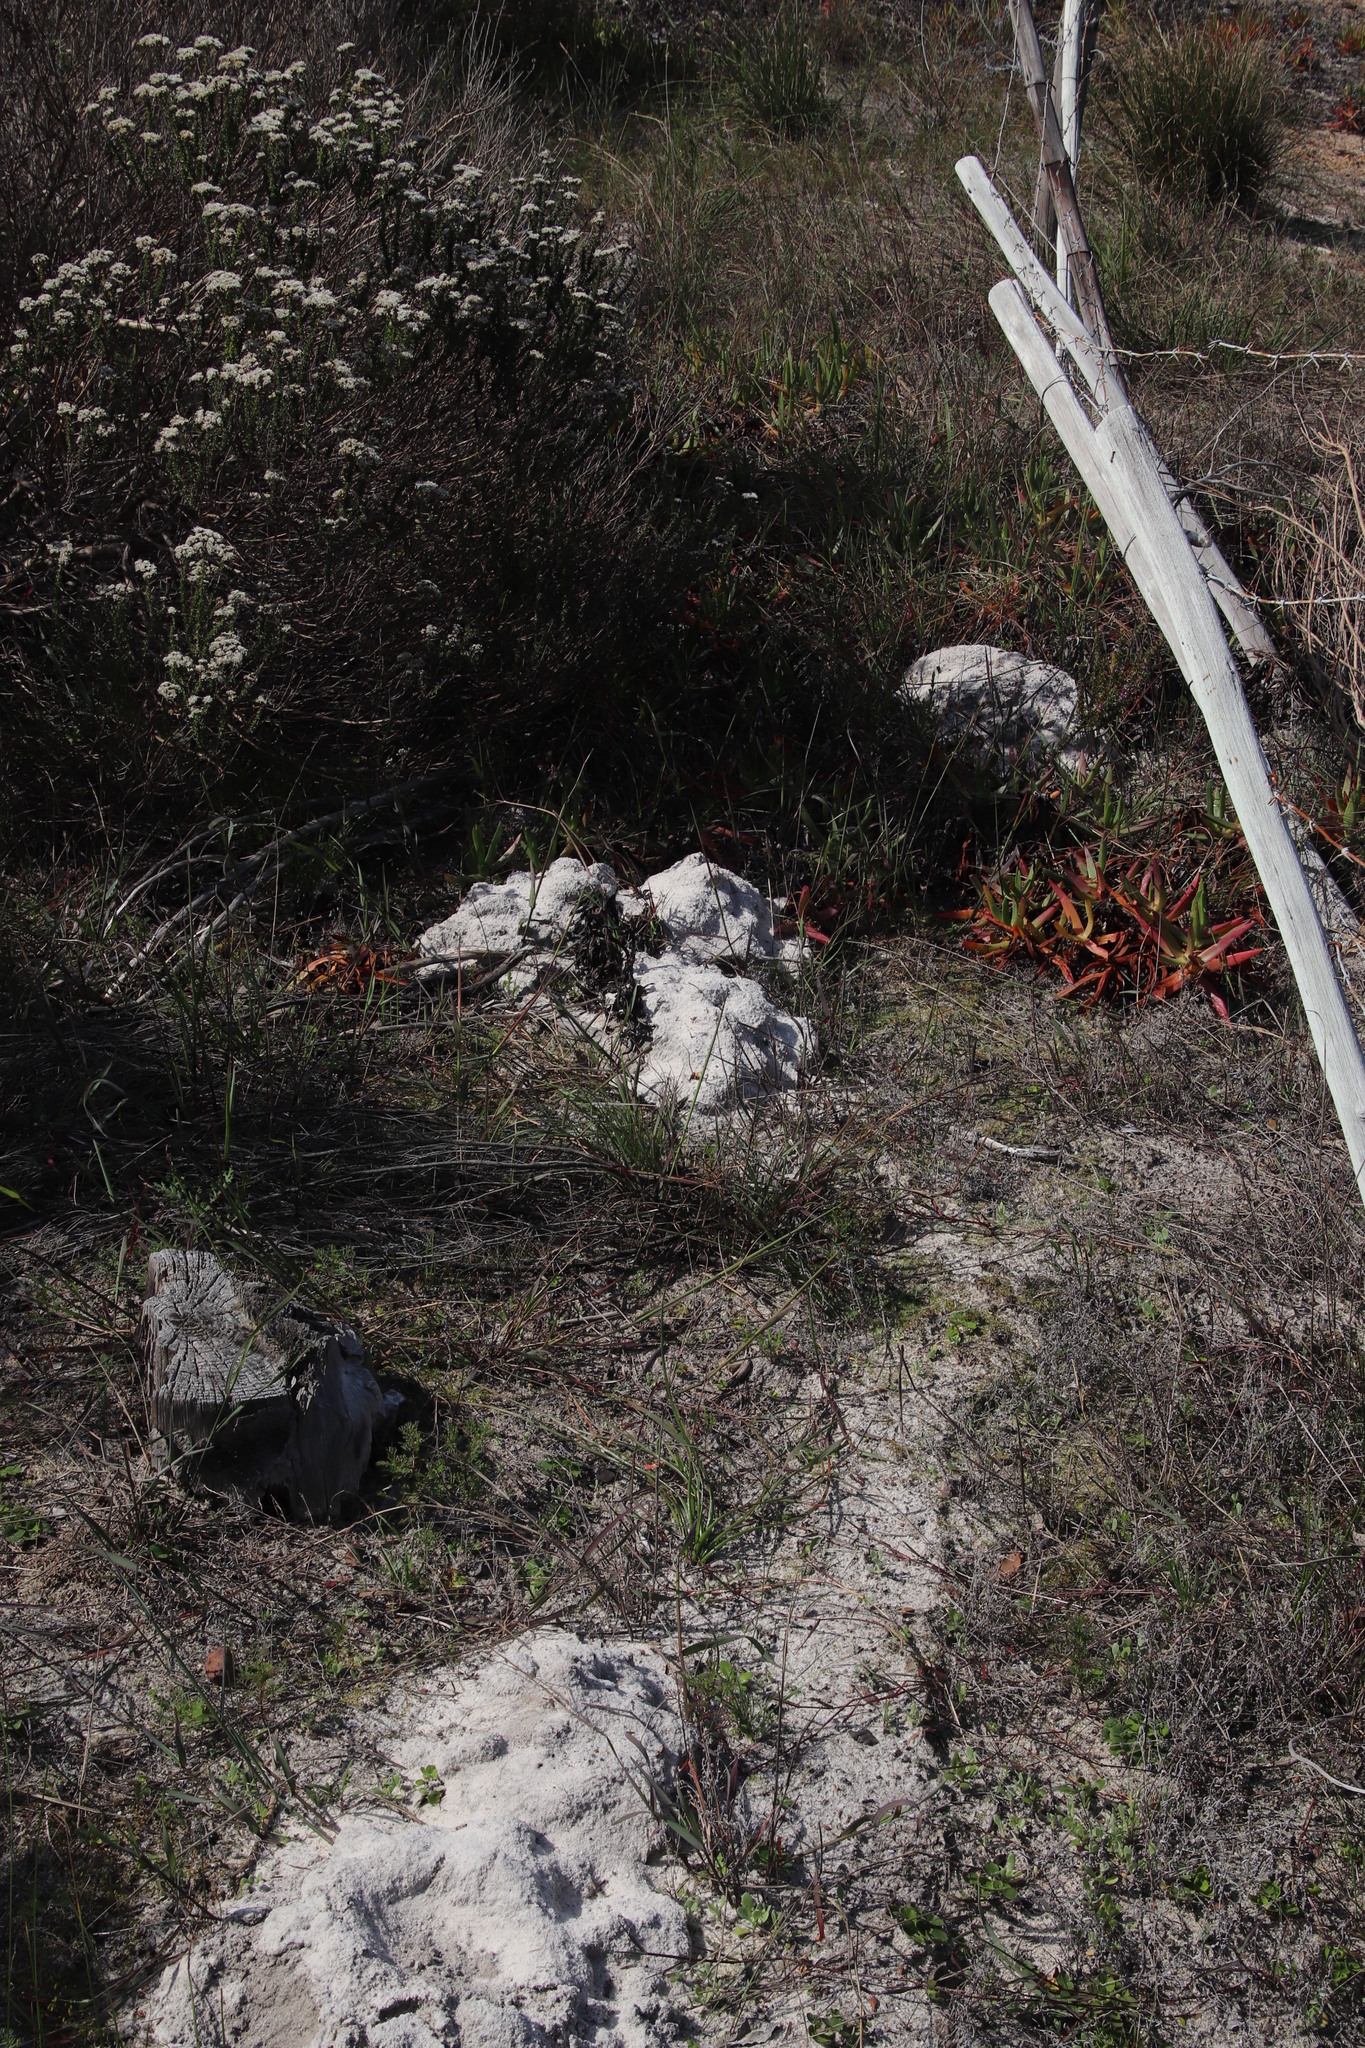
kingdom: Animalia
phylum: Chordata
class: Mammalia
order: Rodentia
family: Bathyergidae
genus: Bathyergus
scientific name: Bathyergus suillus
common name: Cape dune mole rat
